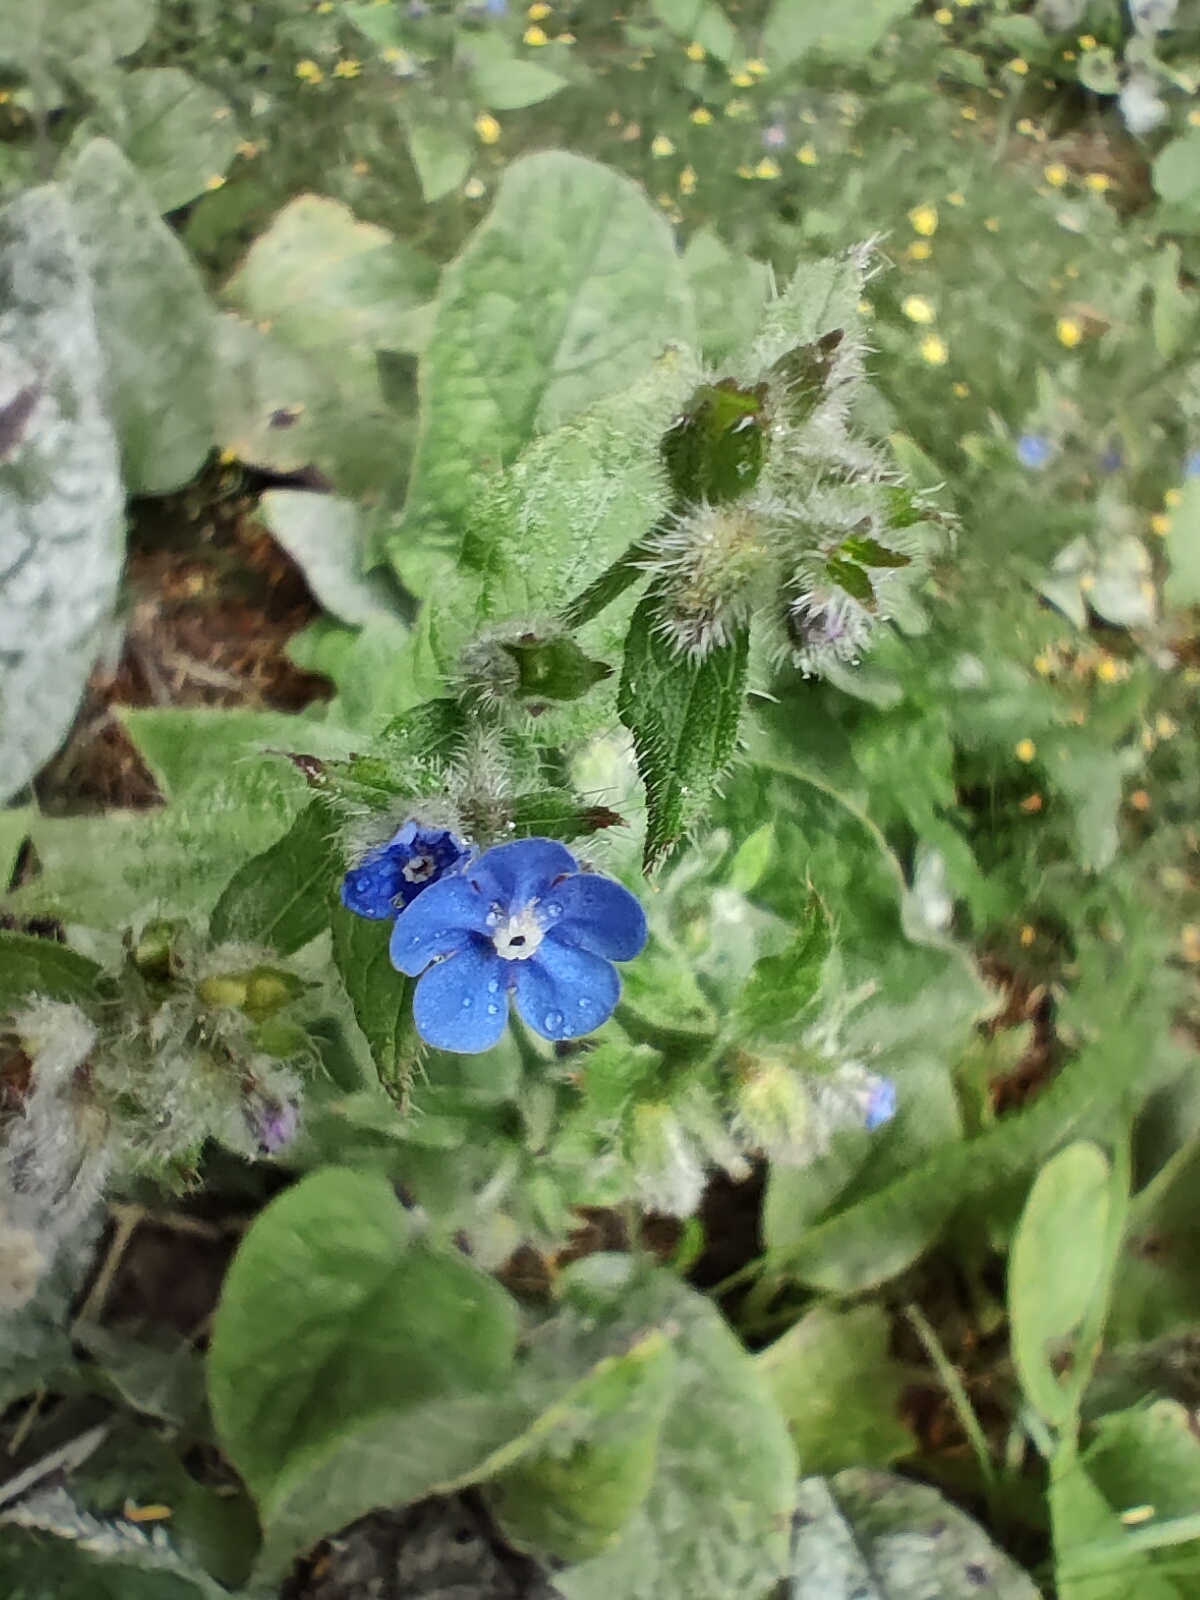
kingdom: Plantae
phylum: Tracheophyta
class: Magnoliopsida
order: Boraginales
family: Boraginaceae
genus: Pentaglottis
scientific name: Pentaglottis sempervirens
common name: Green alkanet
